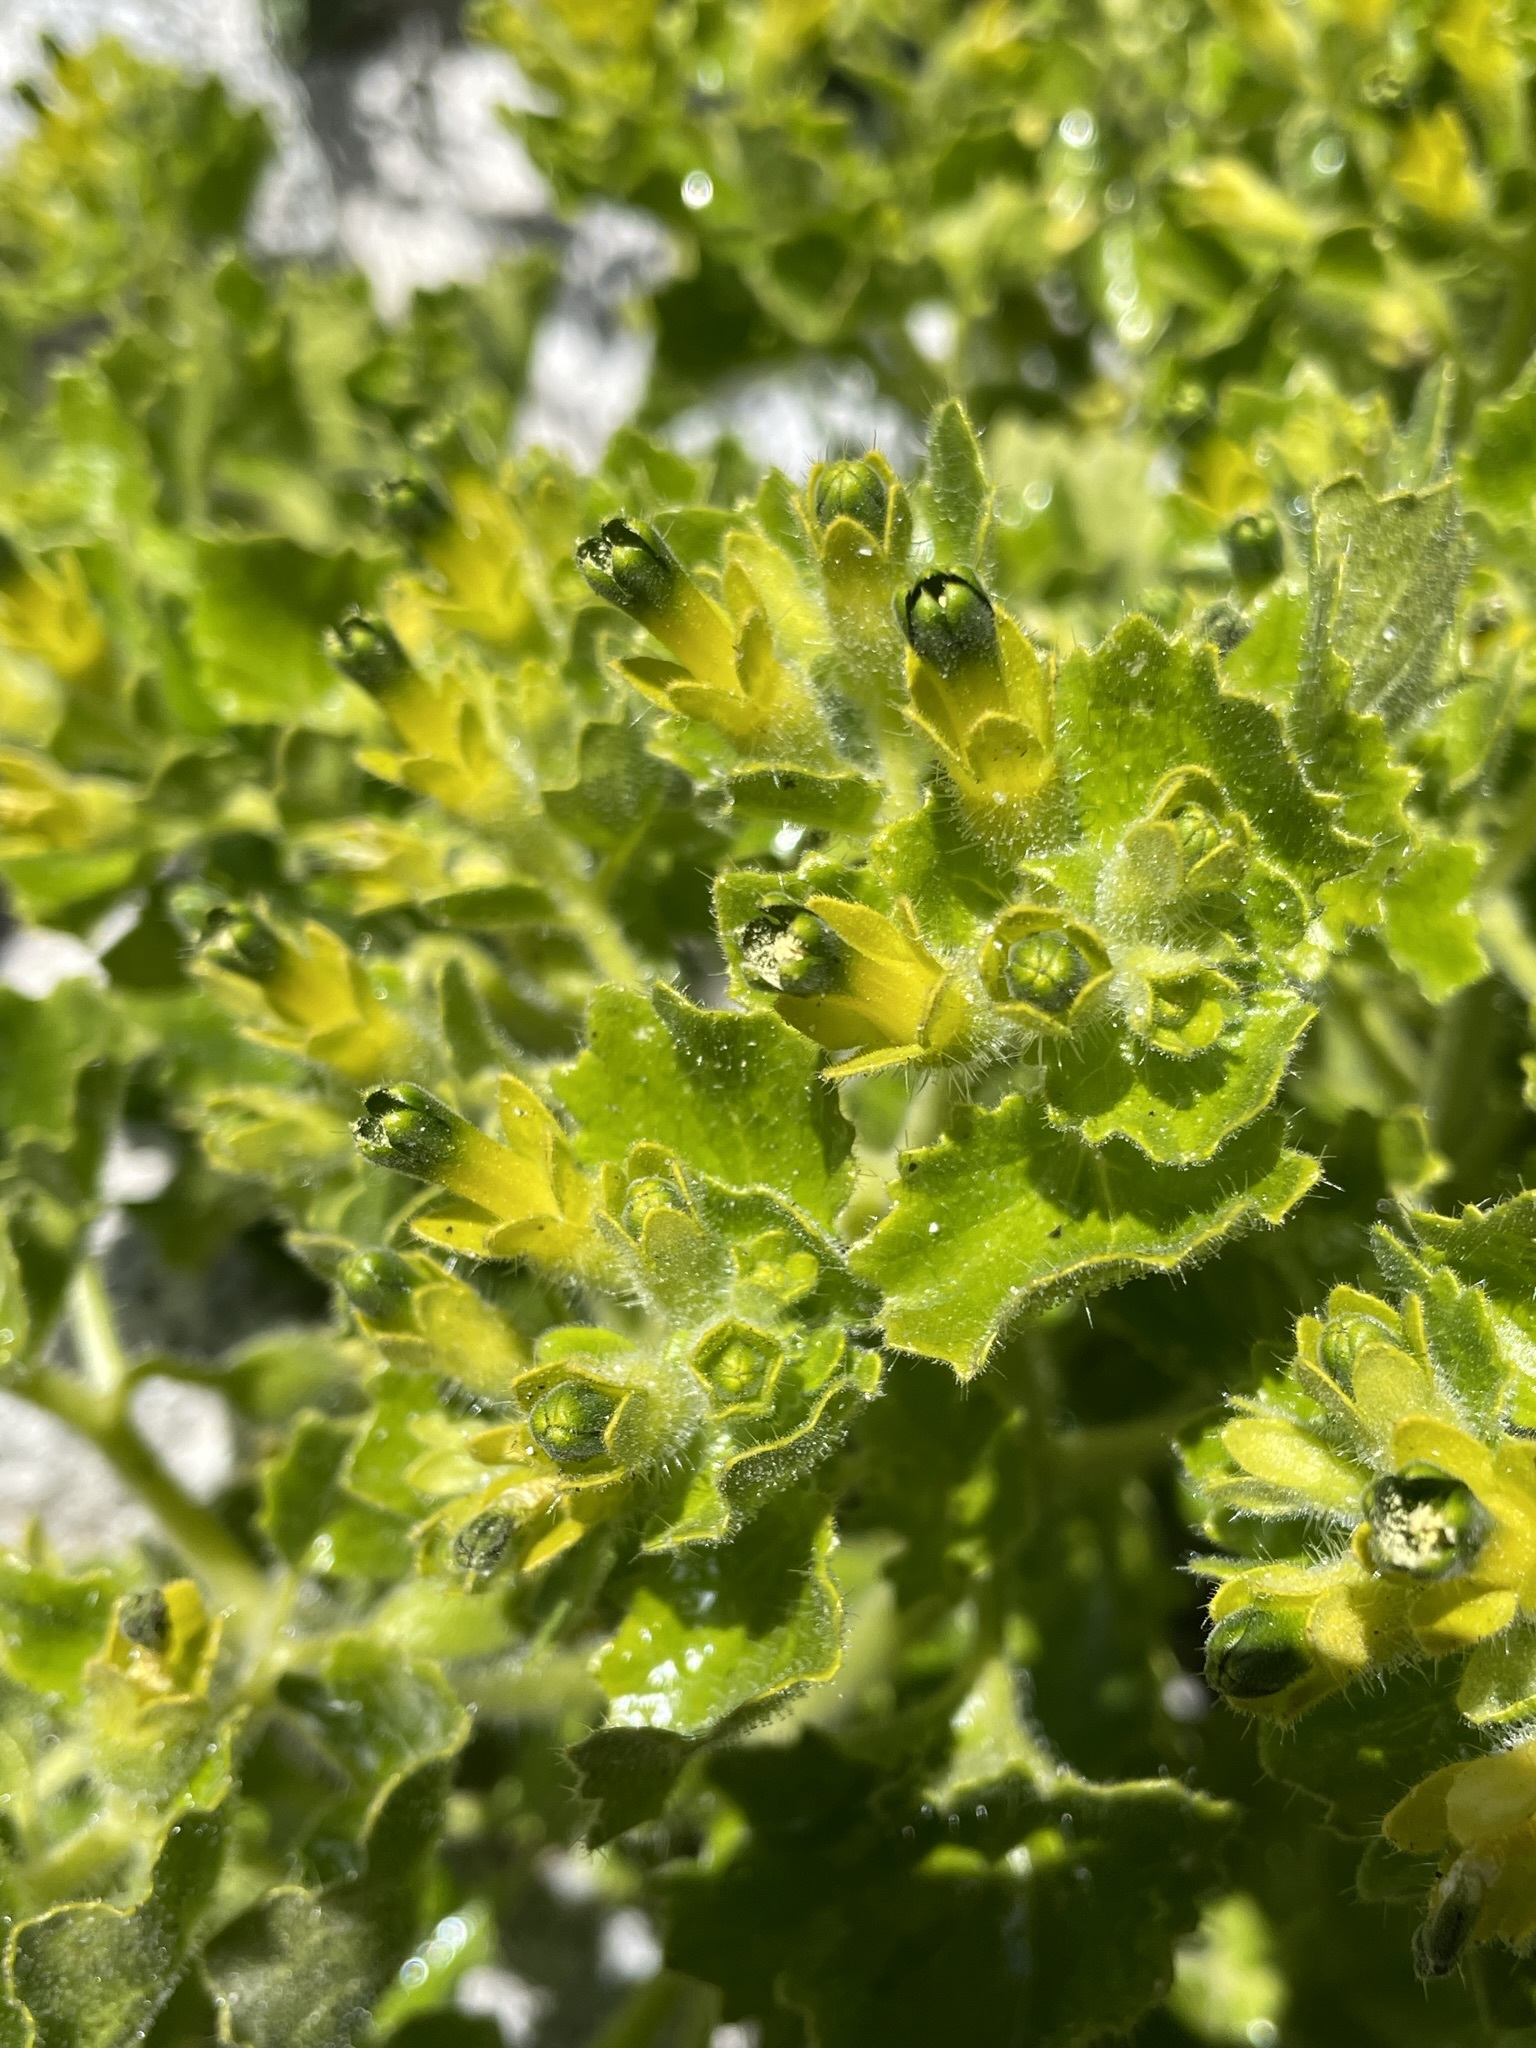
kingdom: Plantae
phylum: Tracheophyta
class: Magnoliopsida
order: Cornales
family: Loasaceae
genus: Eucnide
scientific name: Eucnide rupestris
